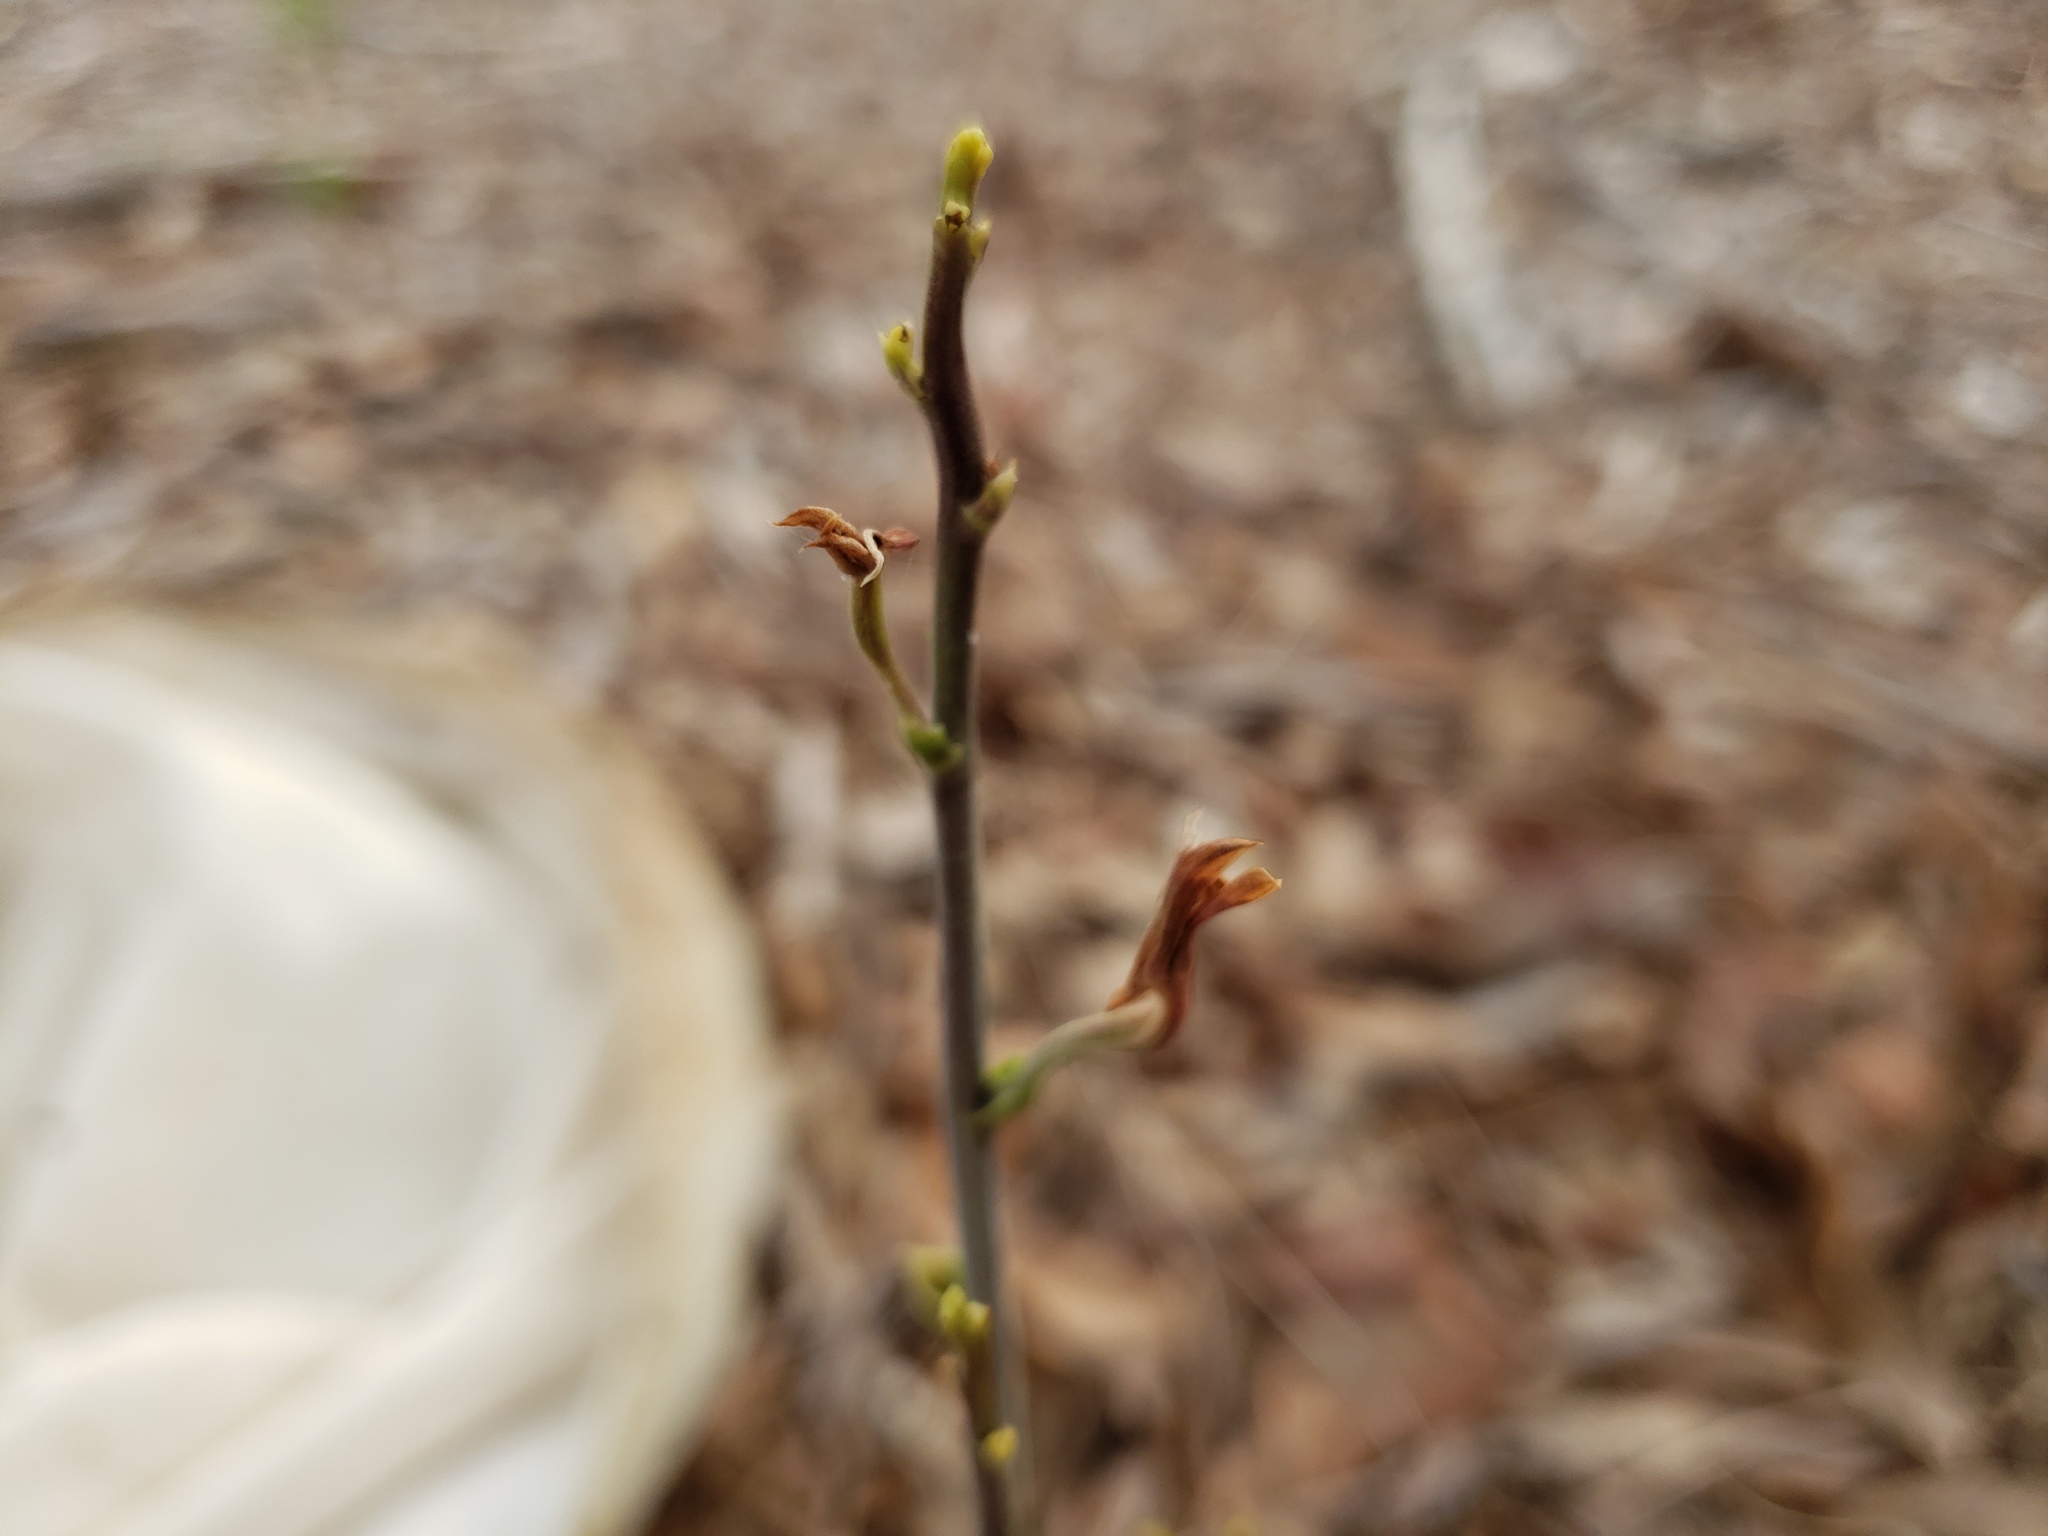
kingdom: Plantae
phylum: Tracheophyta
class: Liliopsida
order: Asparagales
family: Orchidaceae
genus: Eulophia
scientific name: Eulophia graminea
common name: Orchid
